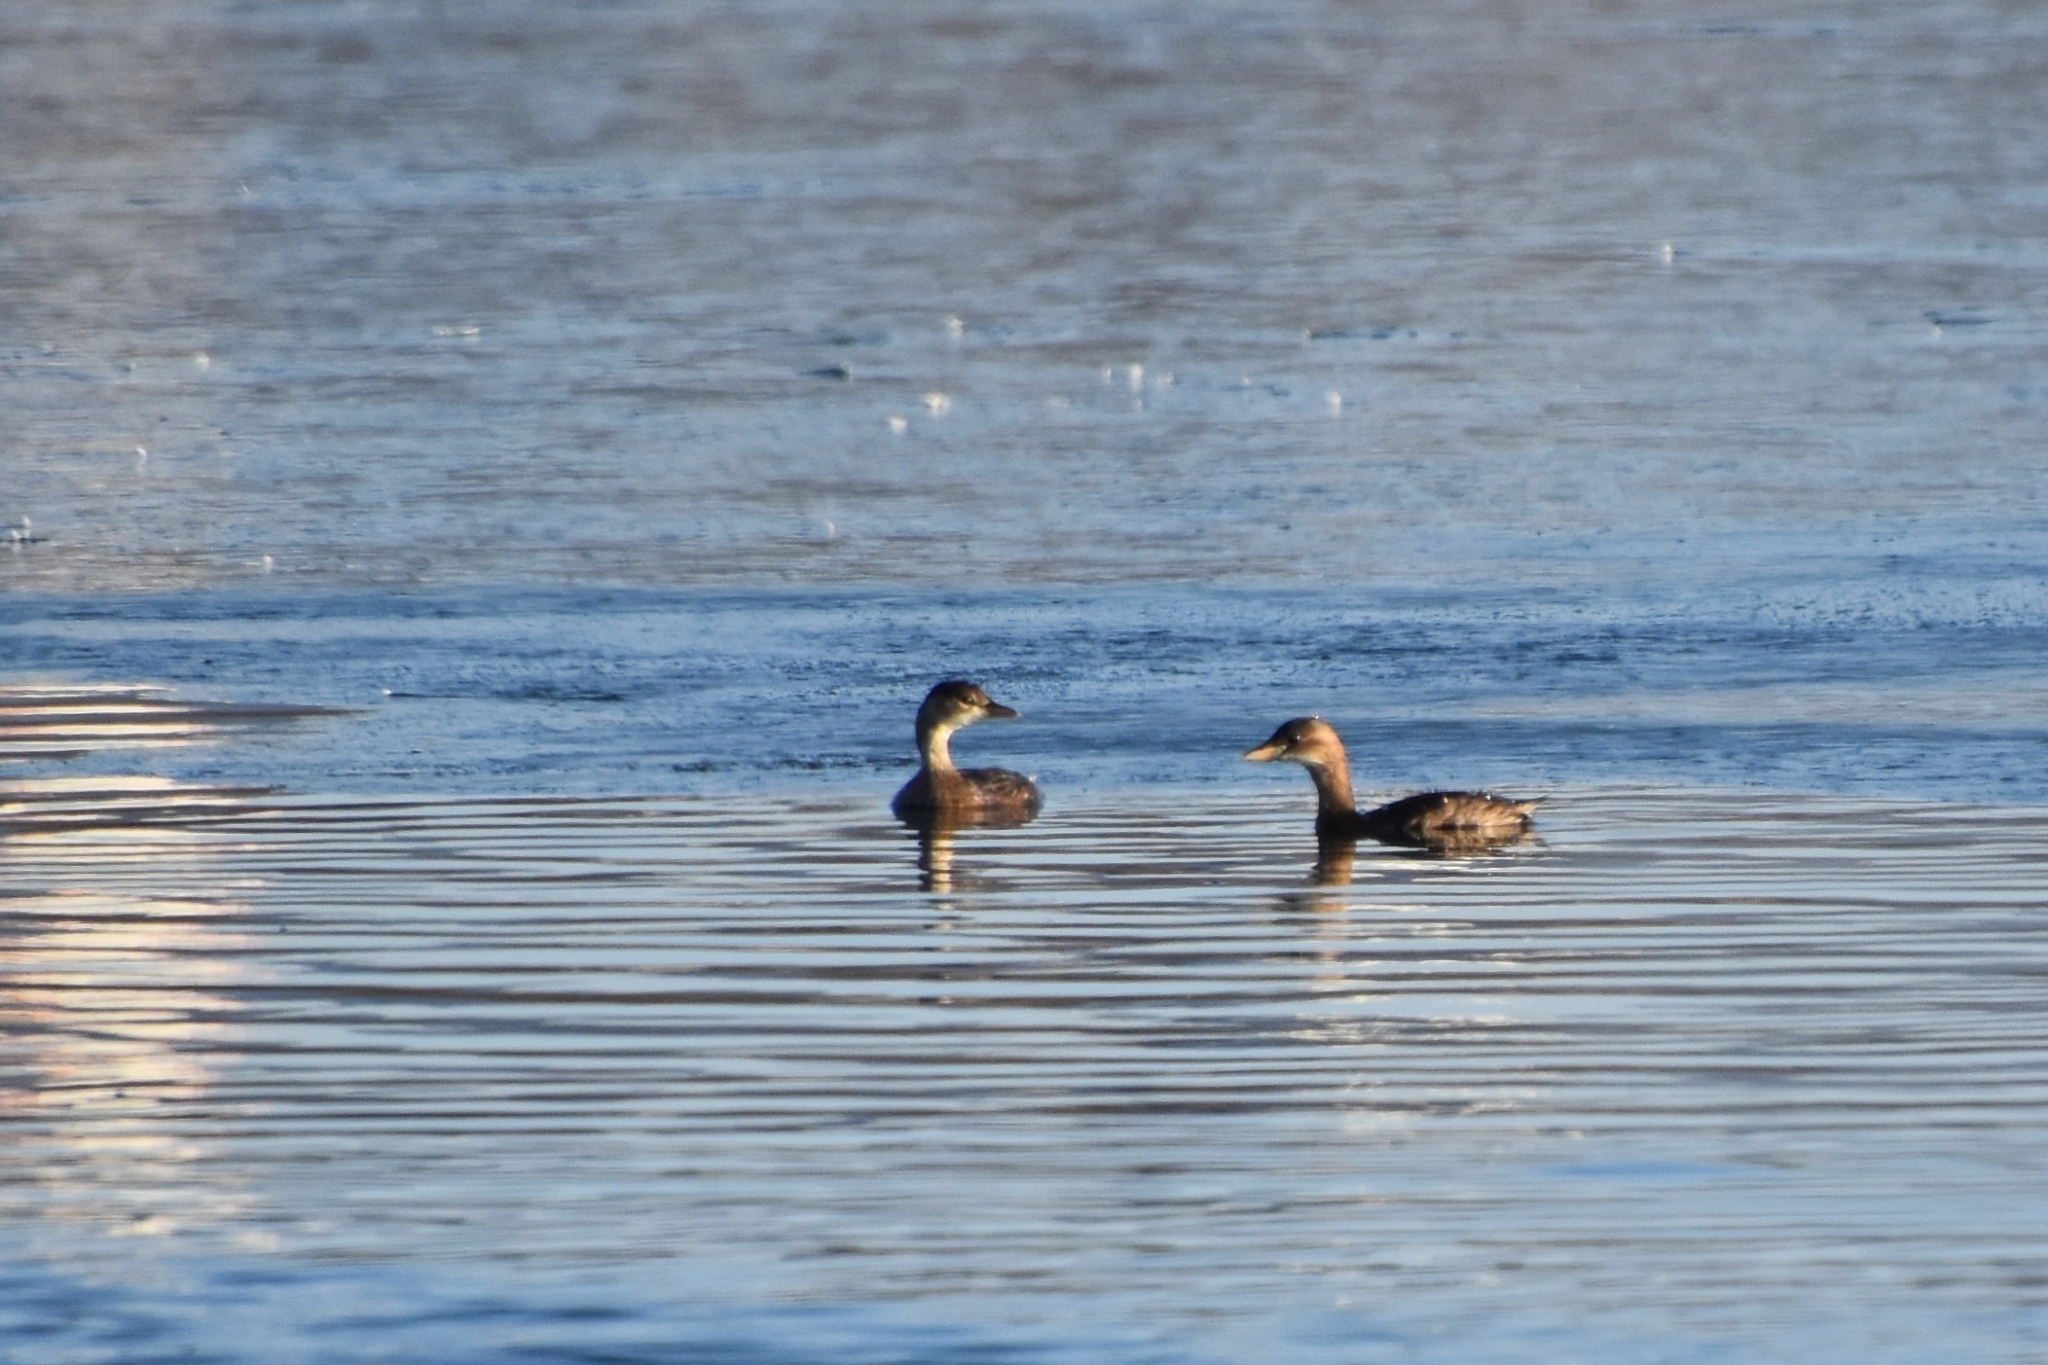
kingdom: Animalia
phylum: Chordata
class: Aves
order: Podicipediformes
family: Podicipedidae
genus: Tachybaptus
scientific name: Tachybaptus ruficollis
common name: Little grebe
